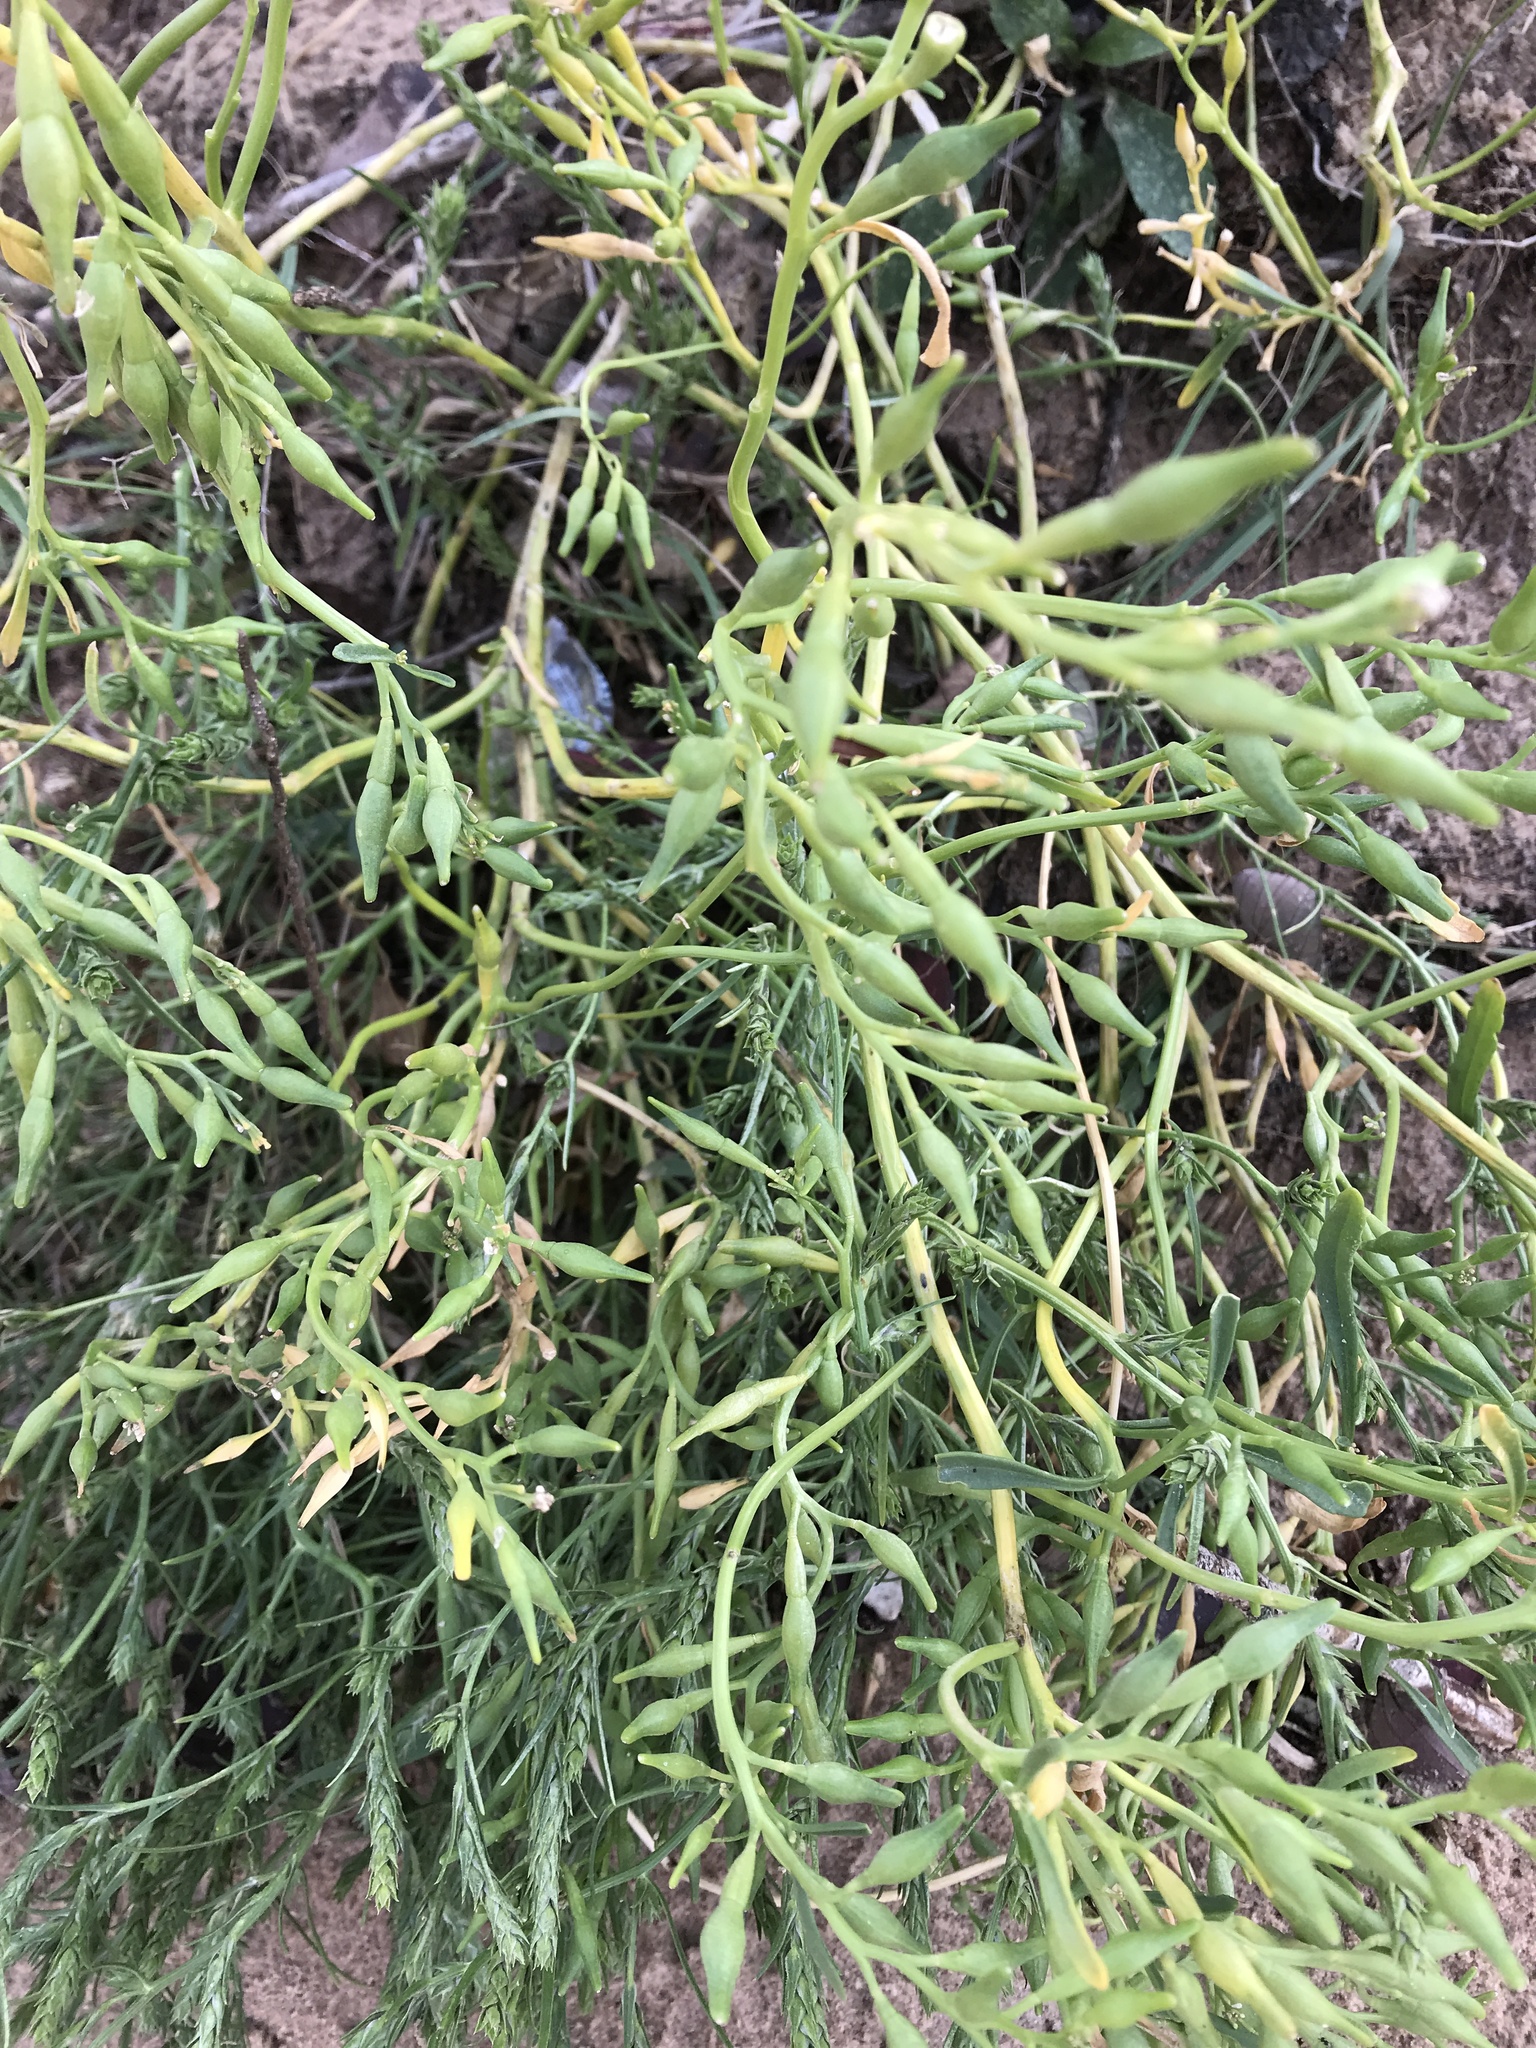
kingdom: Plantae
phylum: Tracheophyta
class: Magnoliopsida
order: Brassicales
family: Brassicaceae
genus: Cakile
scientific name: Cakile edentula
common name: American sea rocket
